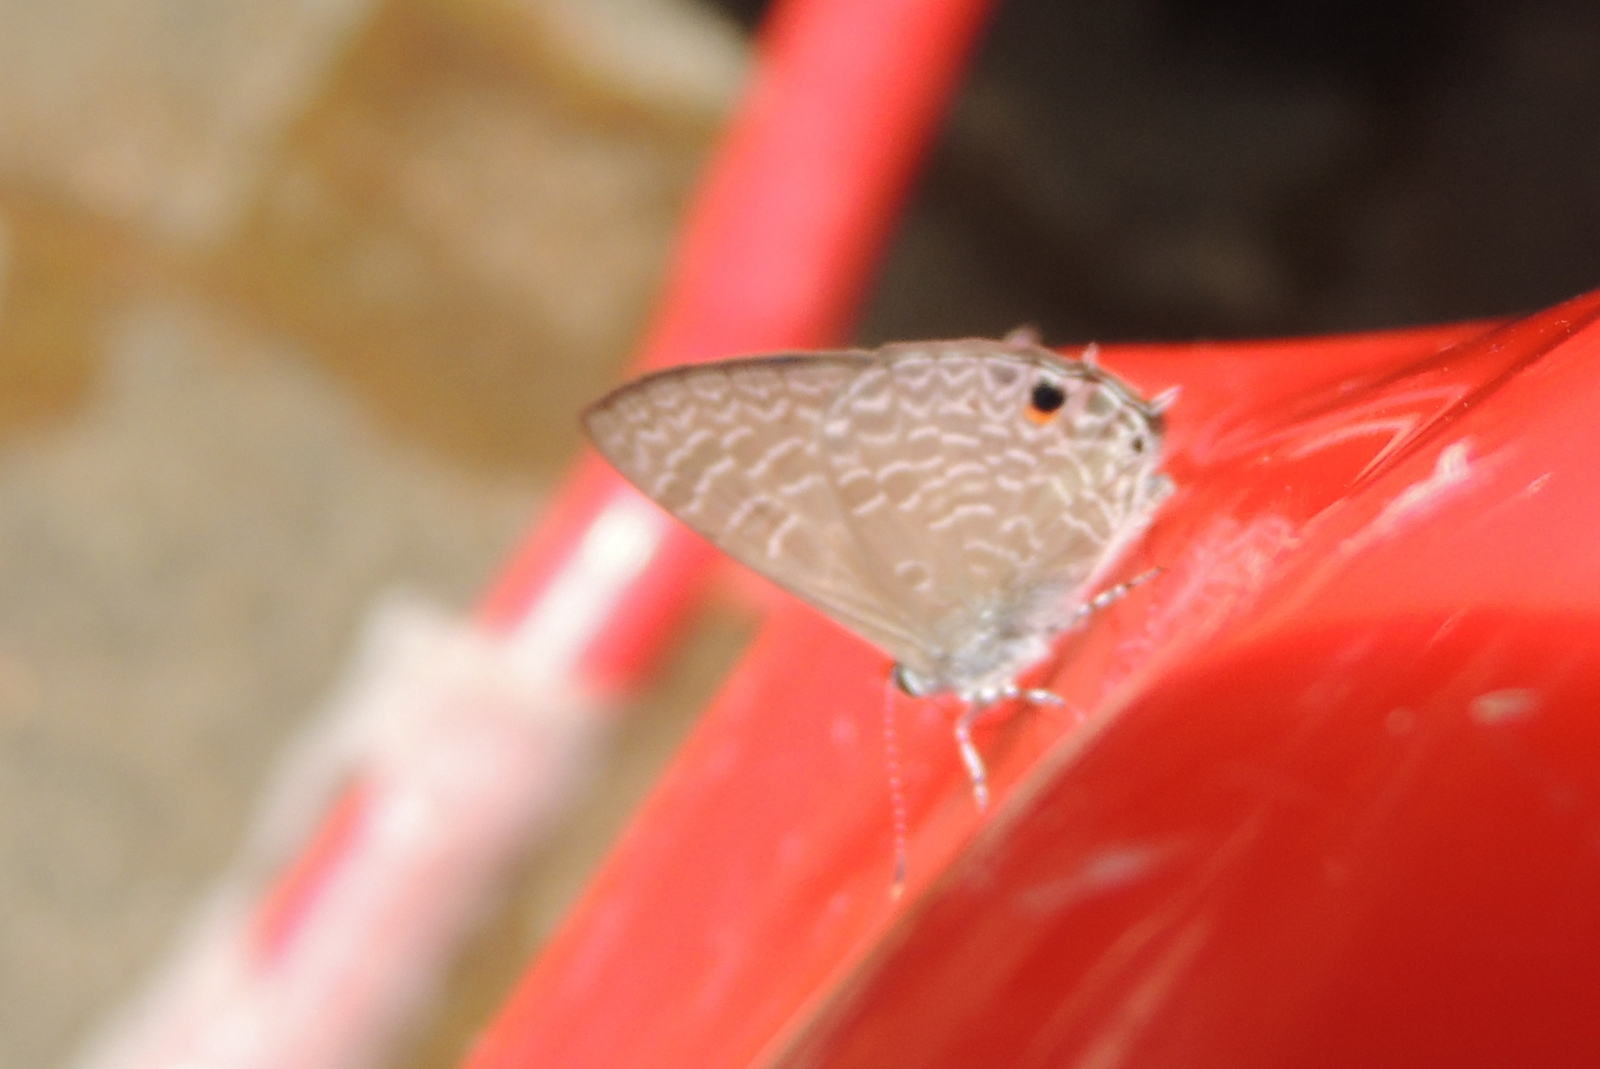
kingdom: Animalia
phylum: Arthropoda
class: Insecta
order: Lepidoptera
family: Lycaenidae
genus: Anthene
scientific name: Anthene lycaenina
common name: Pointed ciliate blue
